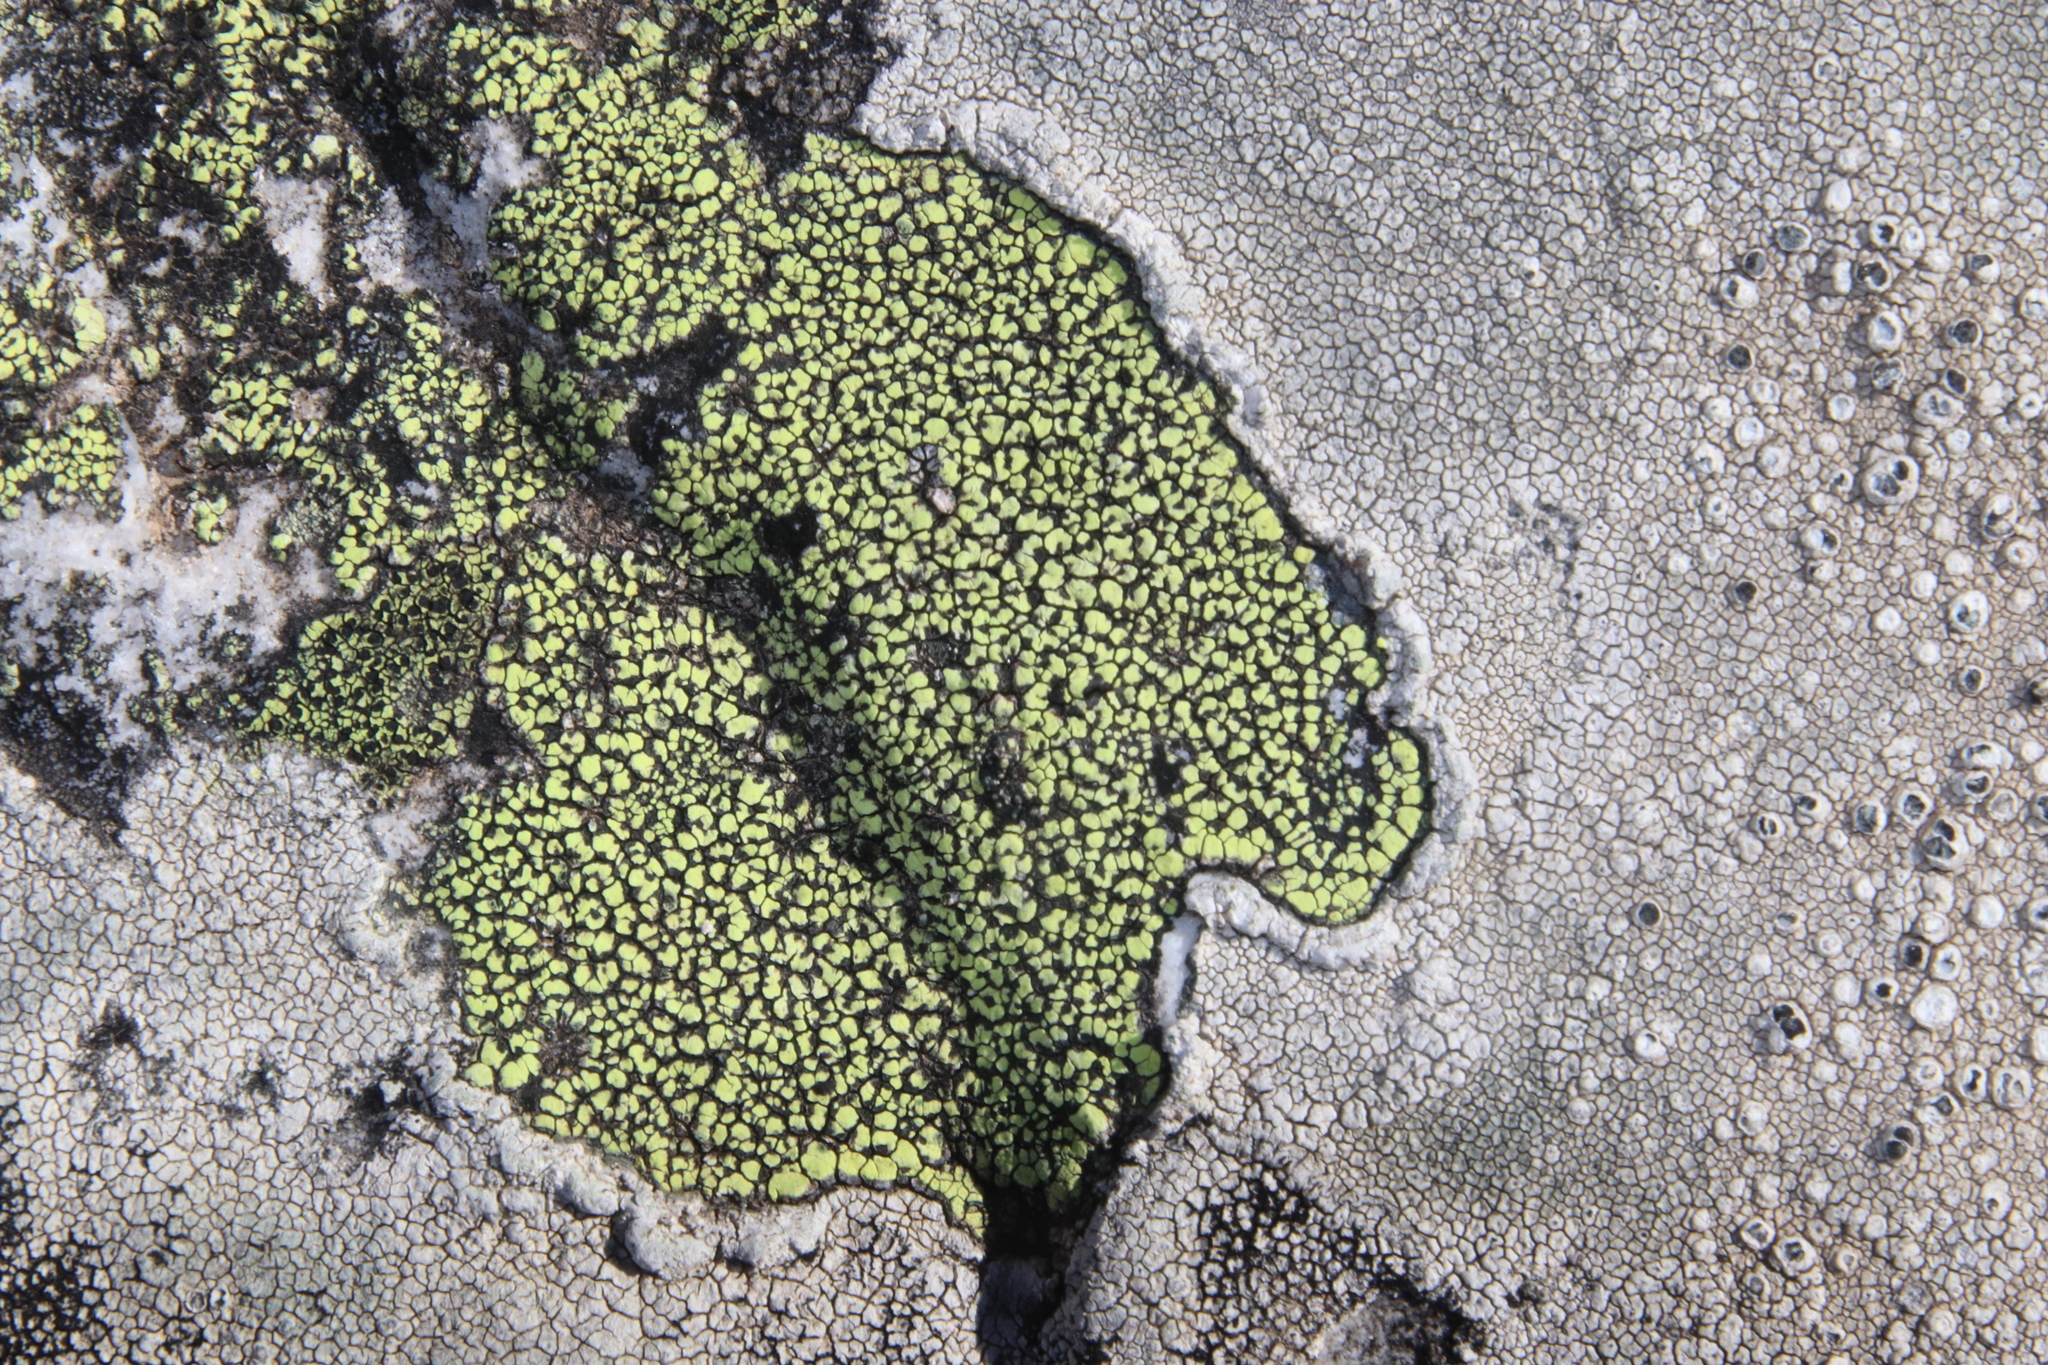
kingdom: Fungi
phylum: Ascomycota
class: Lecanoromycetes
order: Rhizocarpales
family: Rhizocarpaceae
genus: Rhizocarpon
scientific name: Rhizocarpon lecanorinum
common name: Crescent map lichen
